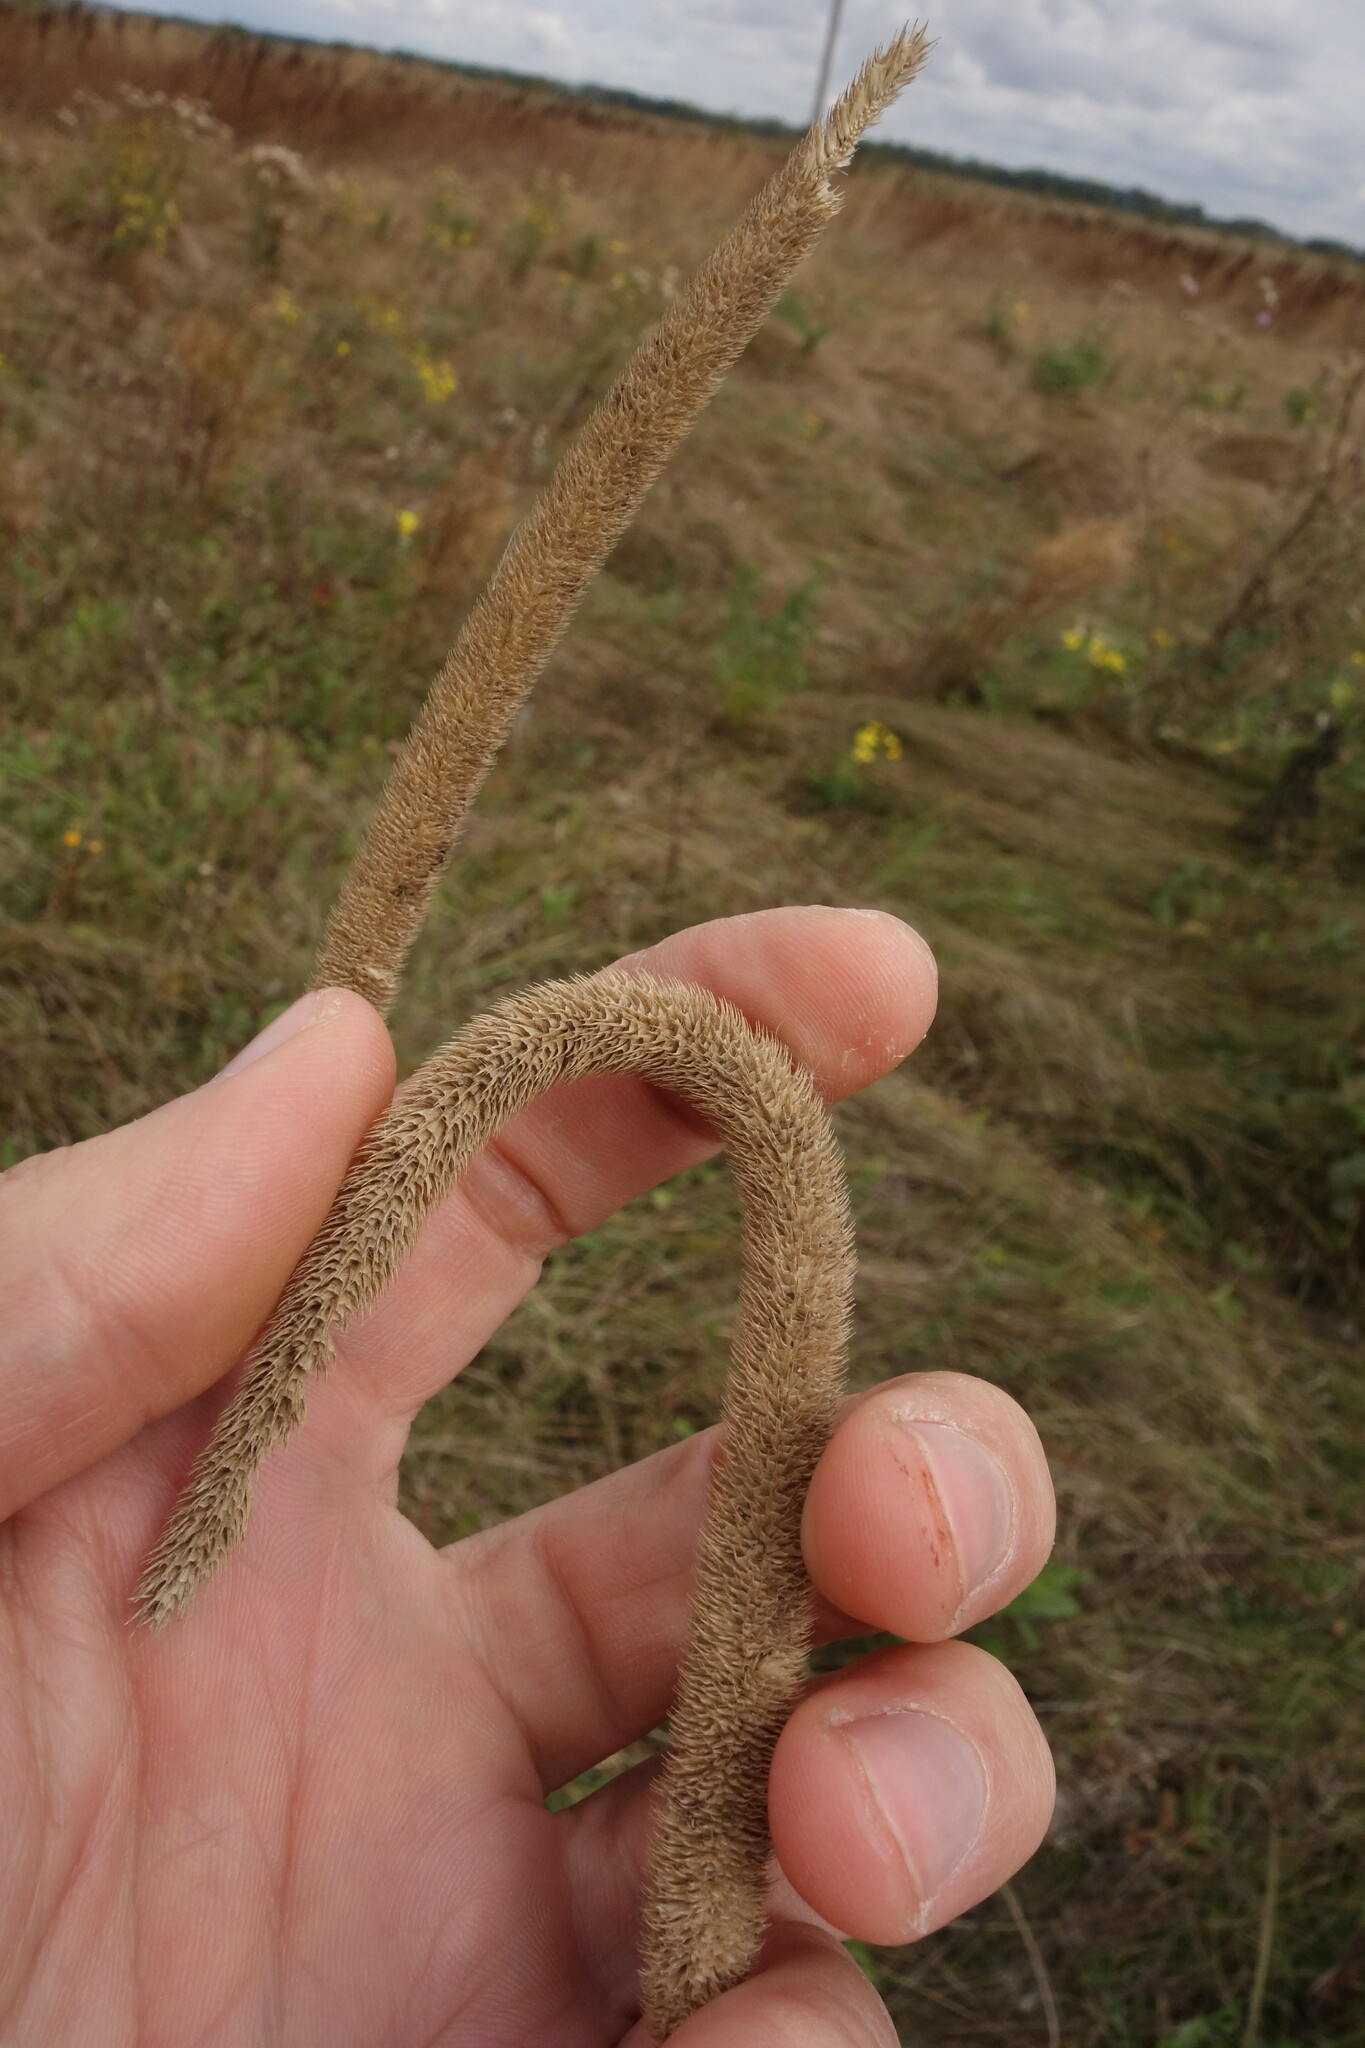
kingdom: Plantae
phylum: Tracheophyta
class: Liliopsida
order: Poales
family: Poaceae
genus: Phleum
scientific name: Phleum pratense
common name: Timothy grass
